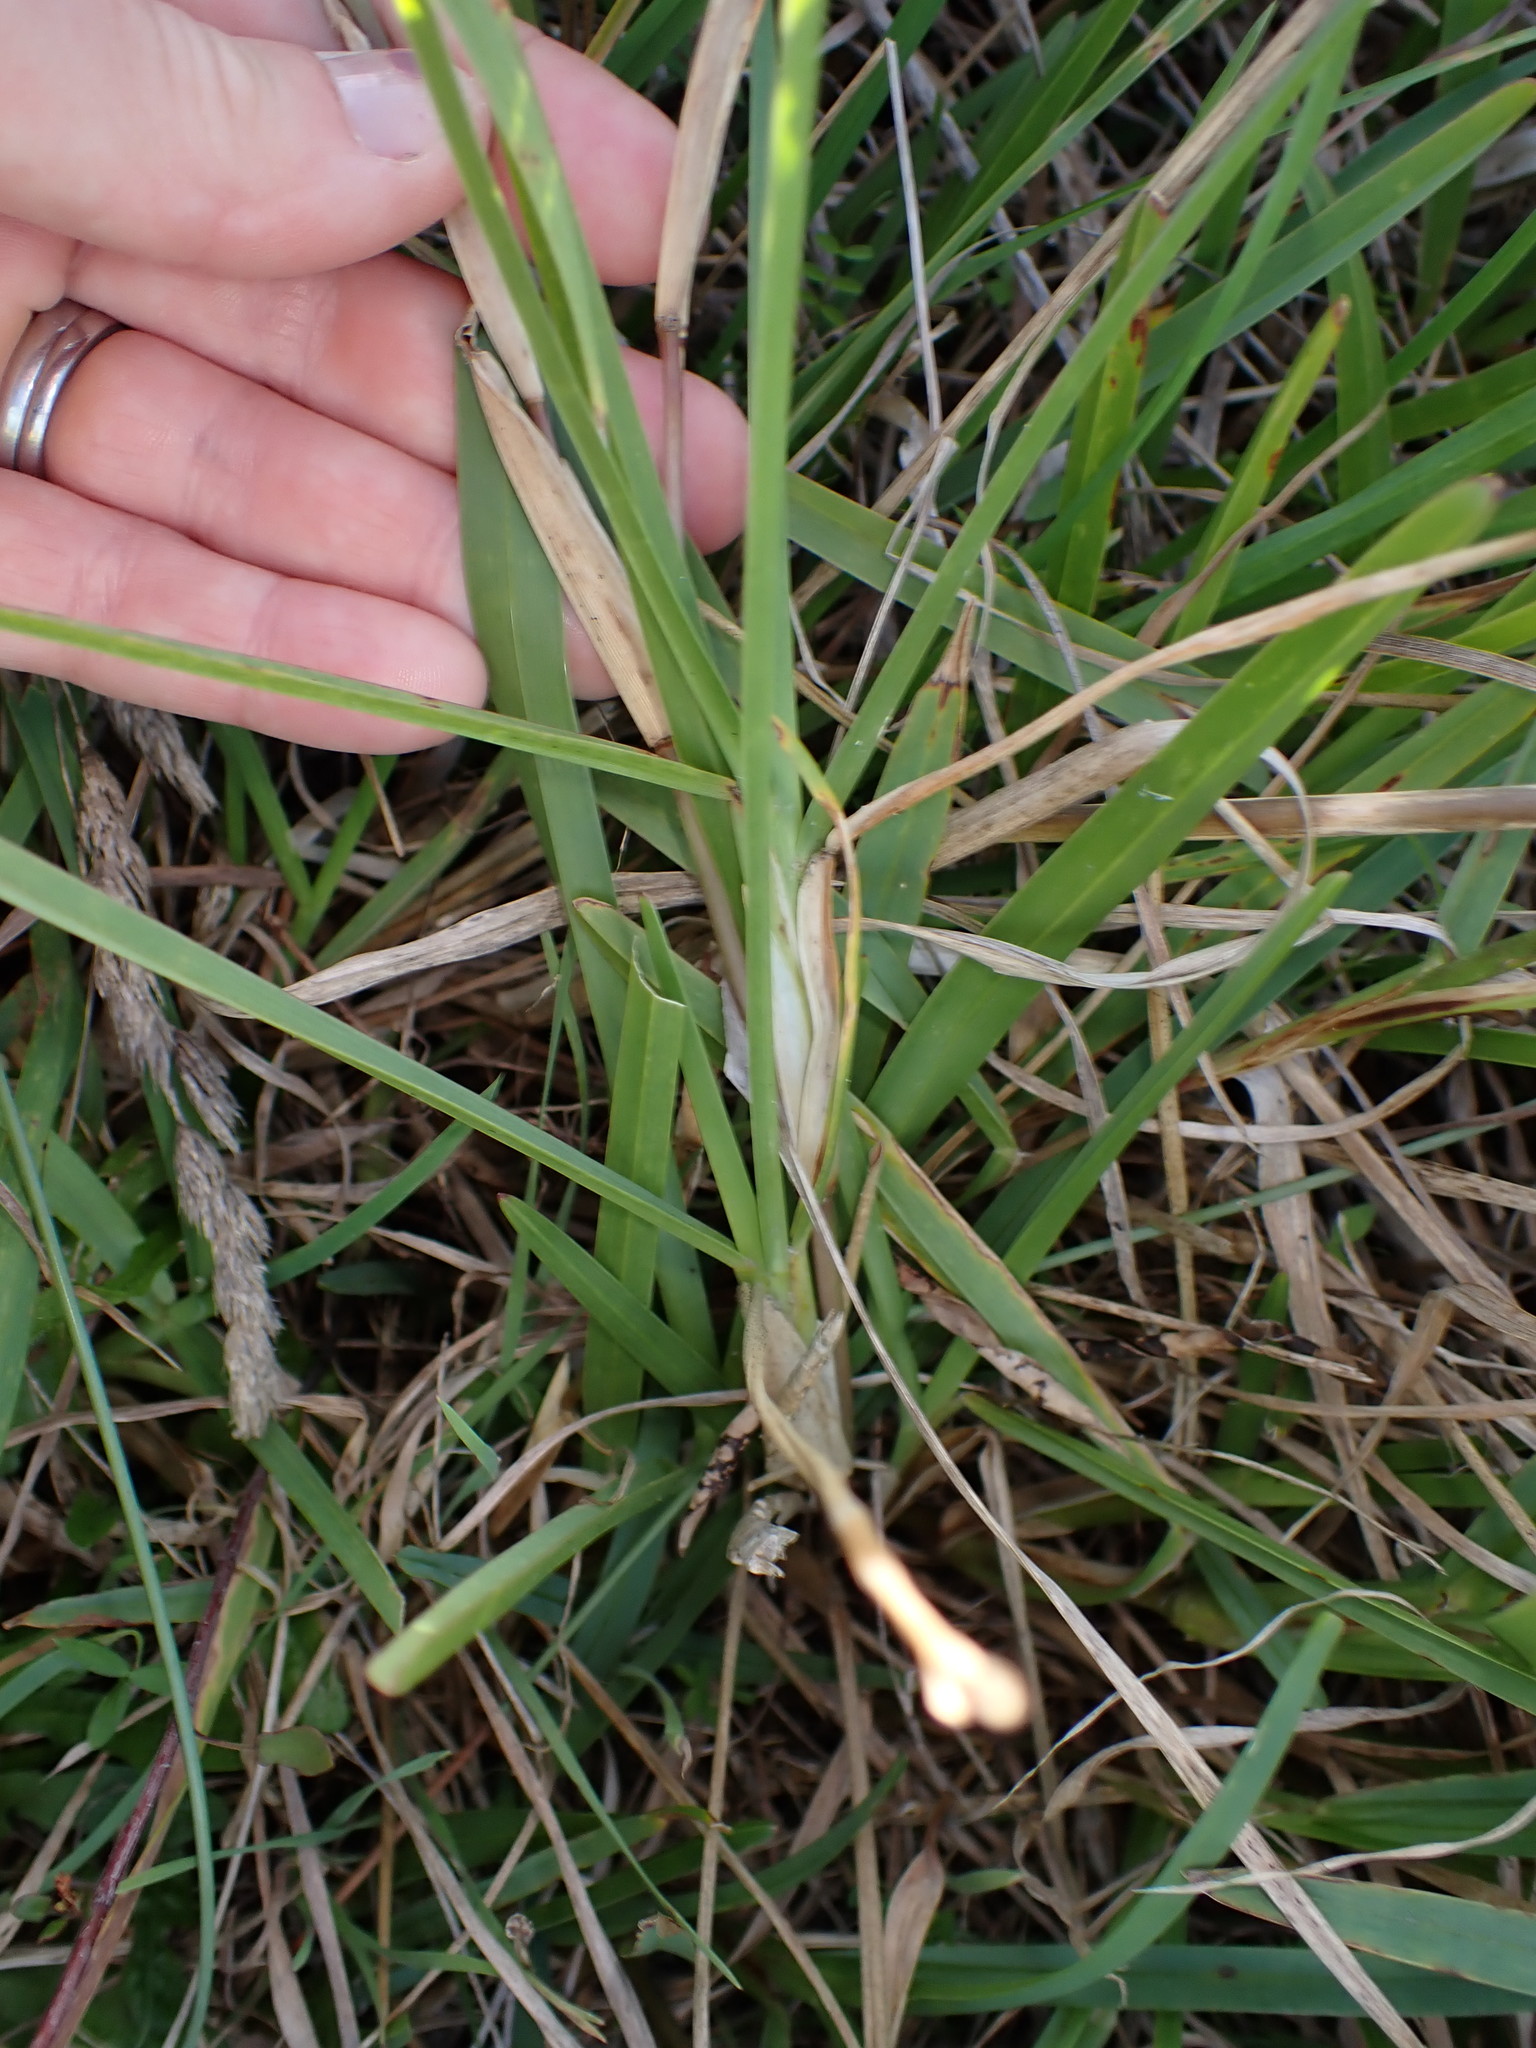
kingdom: Plantae
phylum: Tracheophyta
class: Liliopsida
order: Poales
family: Poaceae
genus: Stenotaphrum
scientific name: Stenotaphrum secundatum
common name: St. augustine grass
